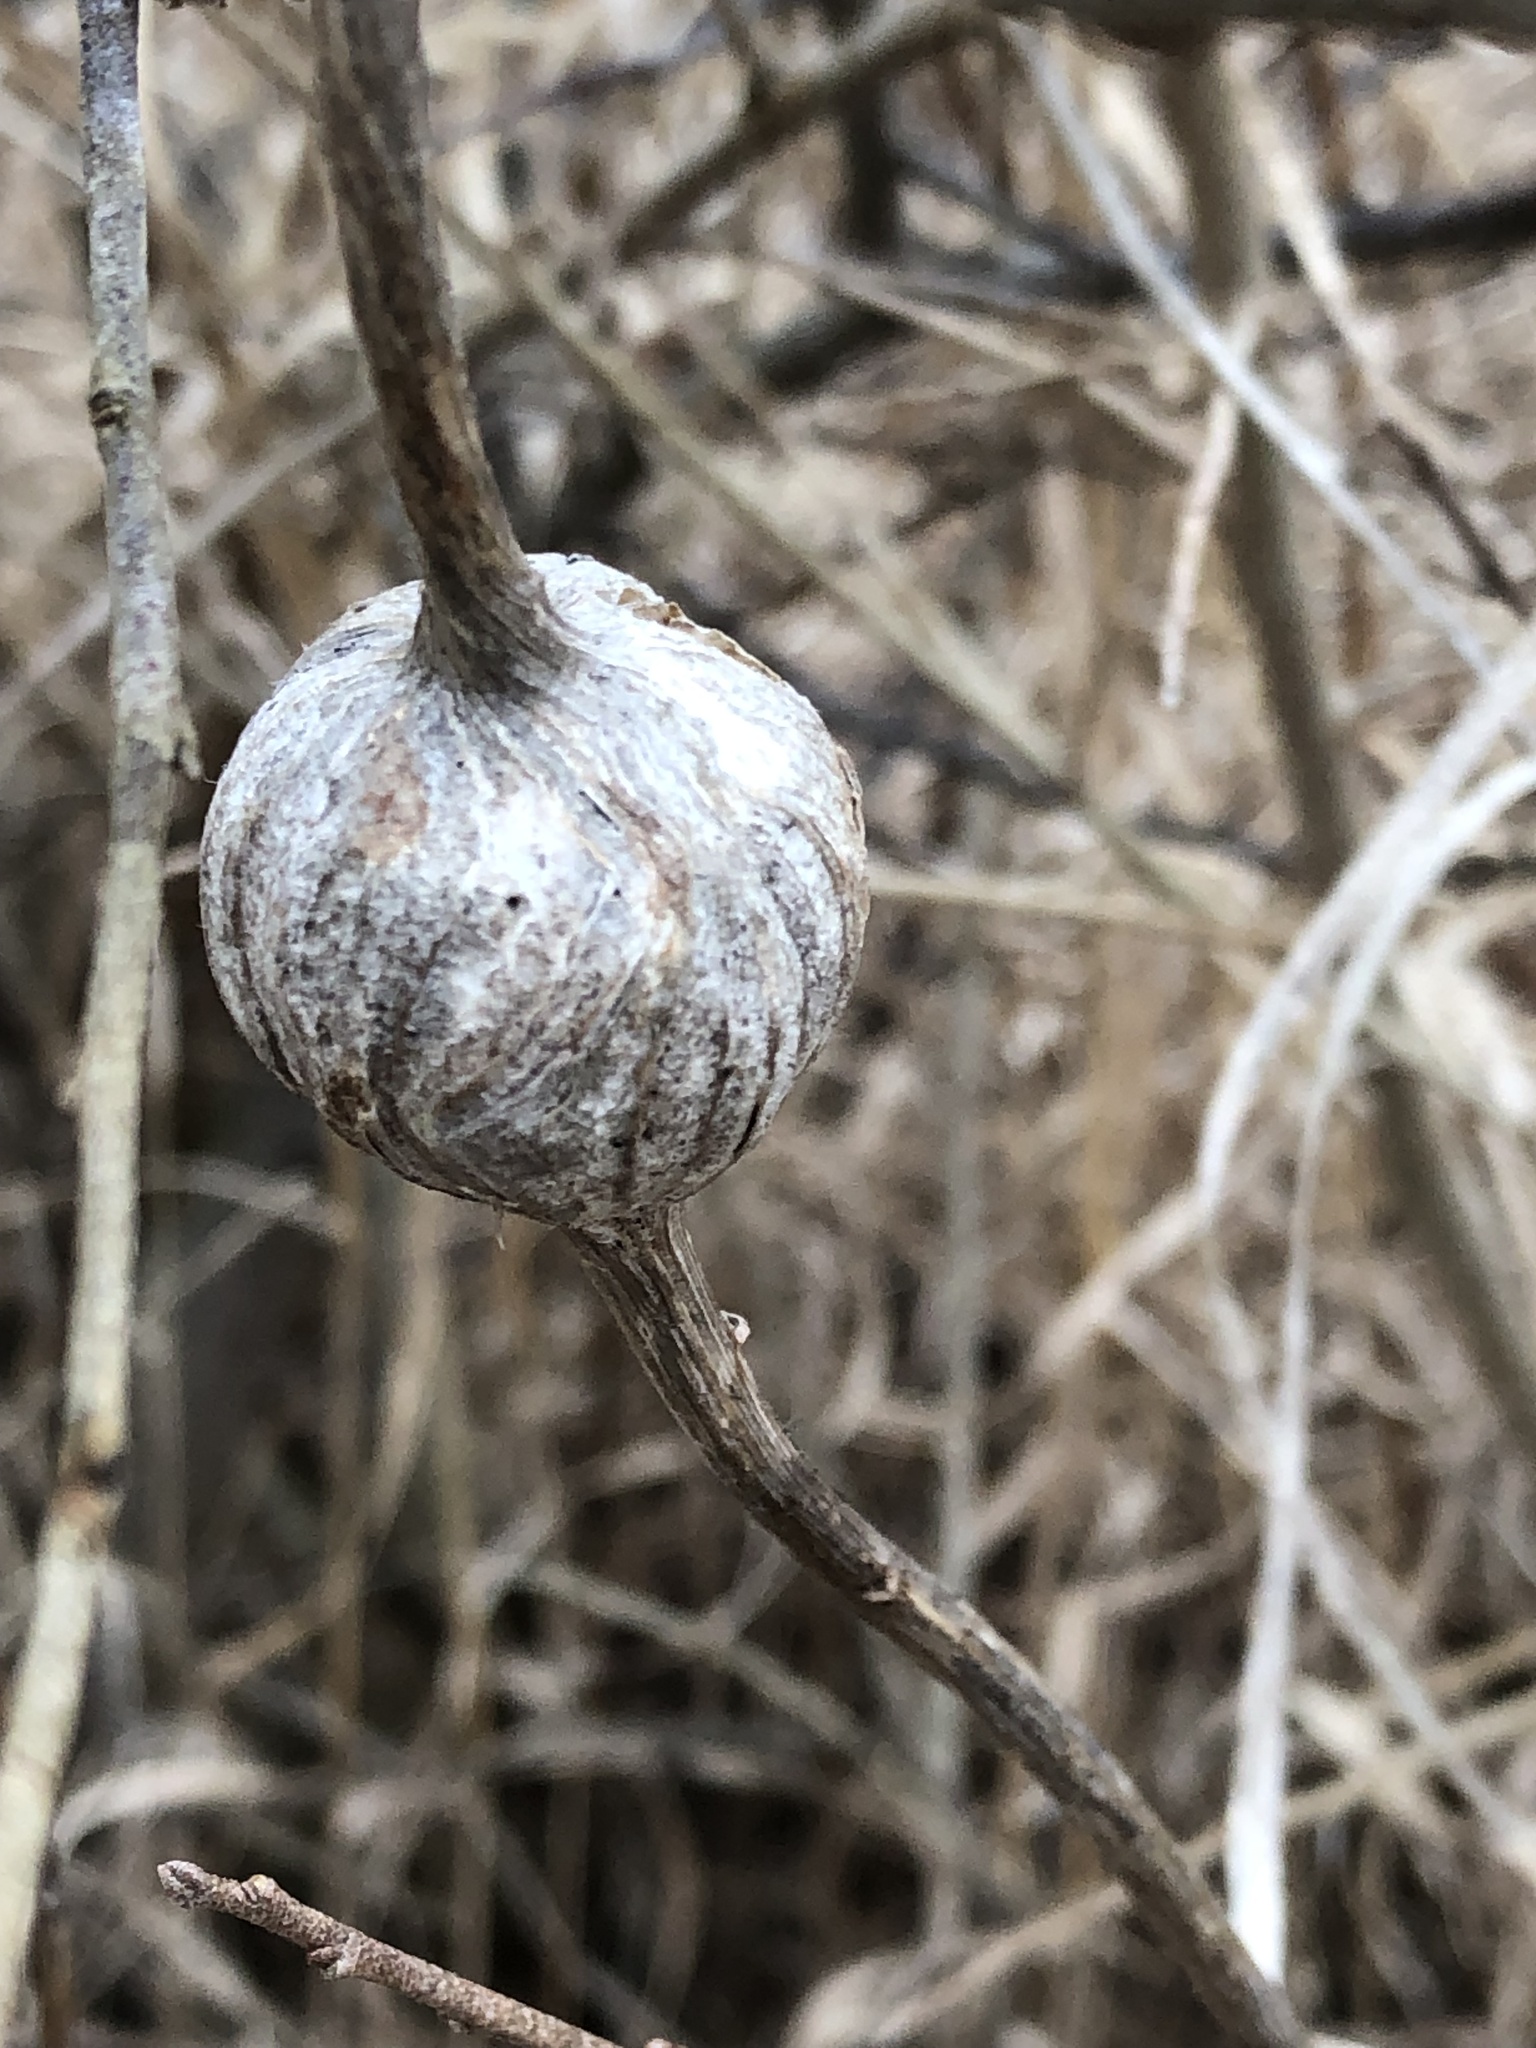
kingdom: Animalia
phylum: Arthropoda
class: Insecta
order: Diptera
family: Tephritidae
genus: Eurosta
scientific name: Eurosta solidaginis
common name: Goldenrod gall fly
